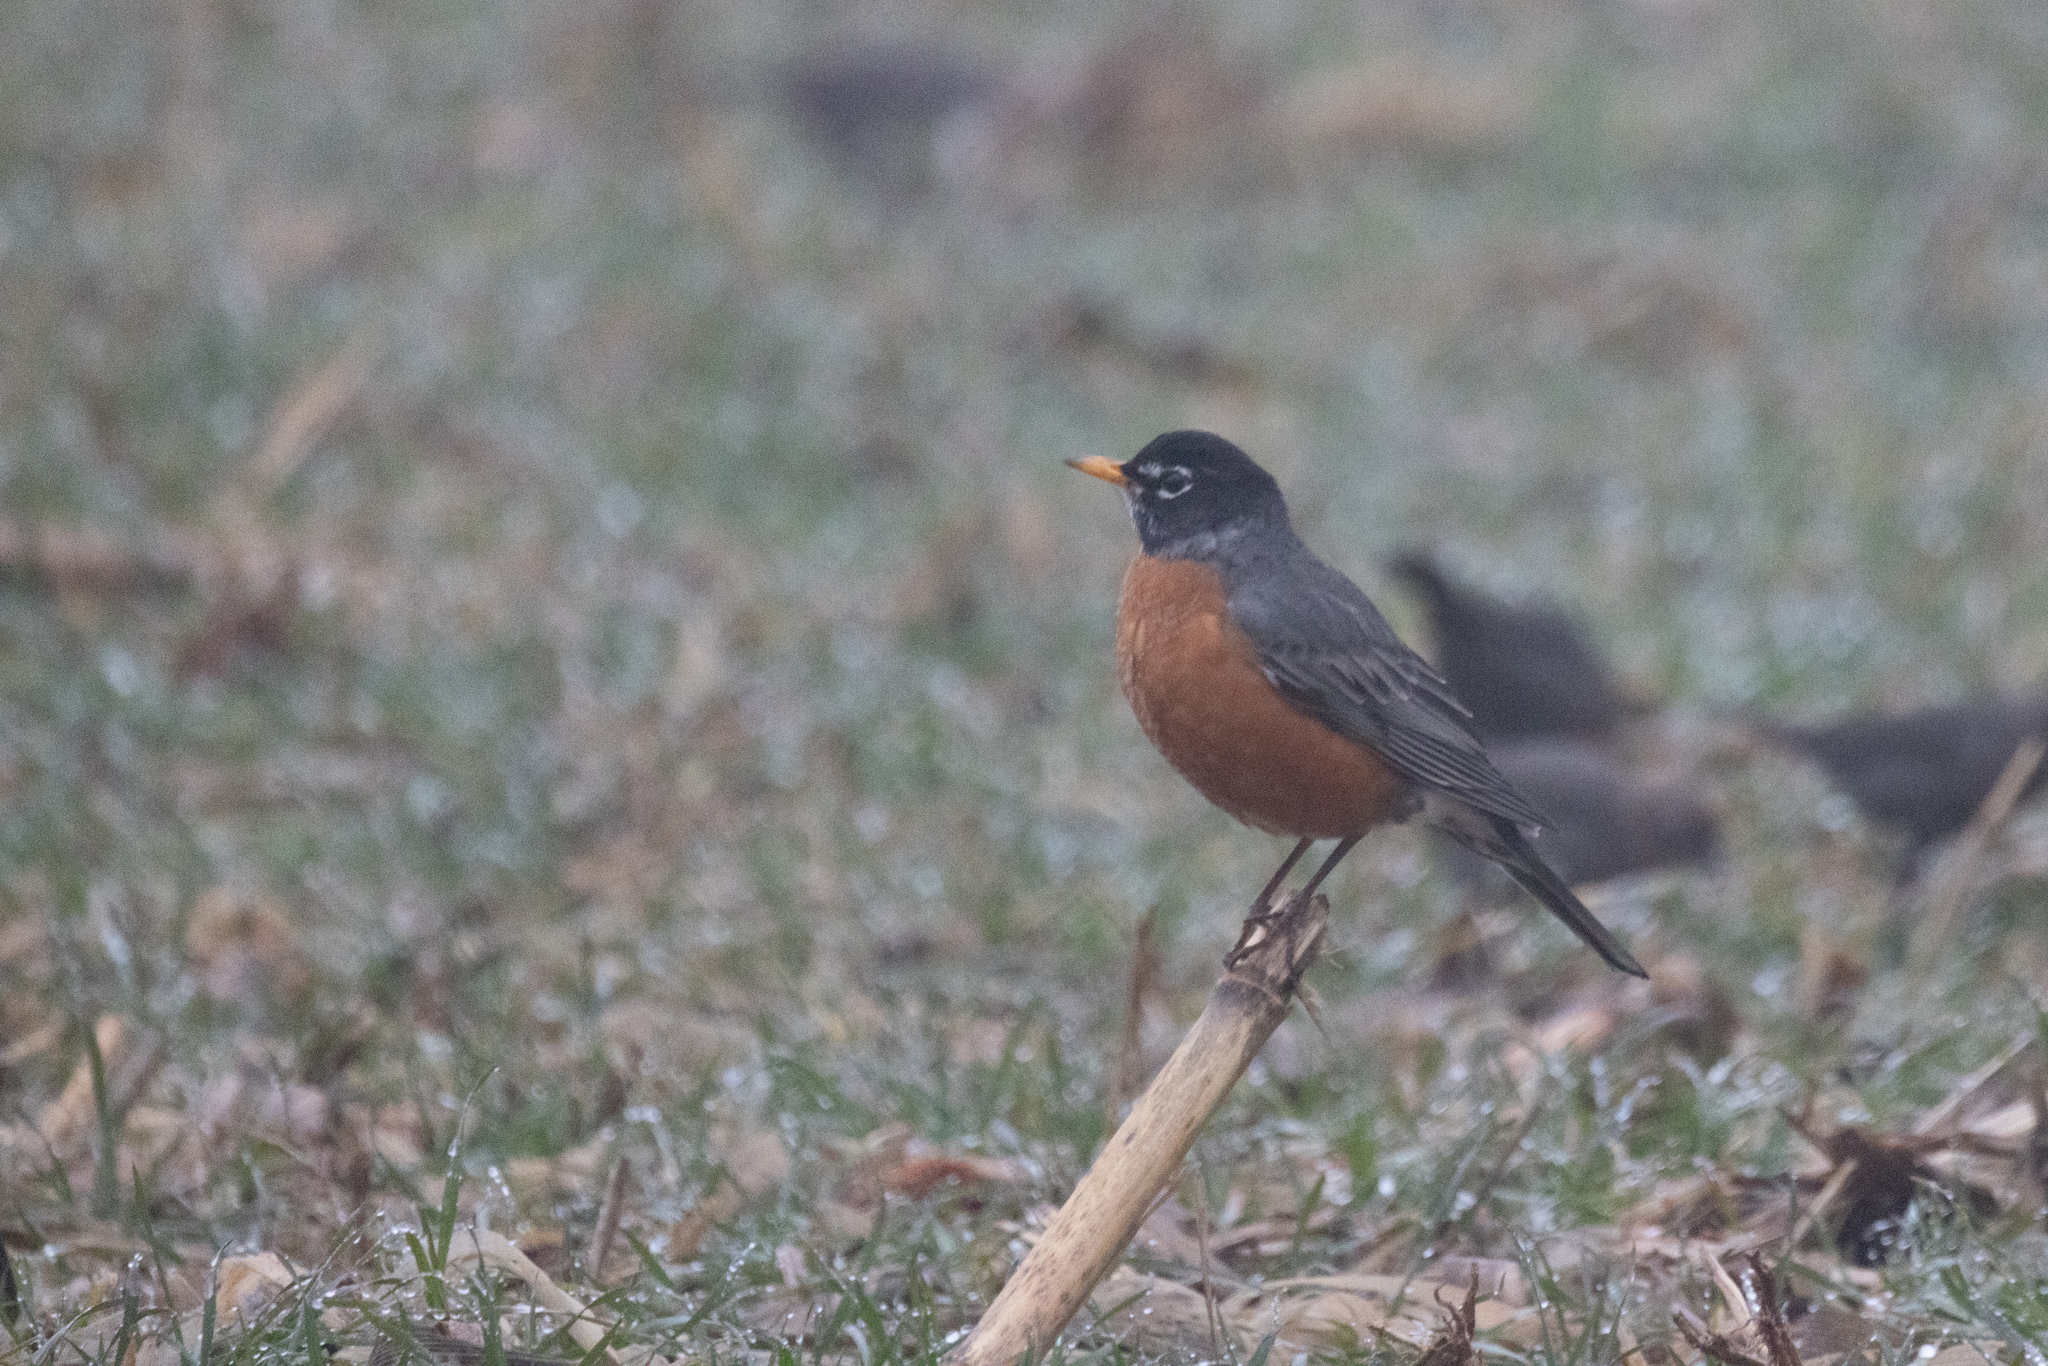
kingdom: Animalia
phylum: Chordata
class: Aves
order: Passeriformes
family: Turdidae
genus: Turdus
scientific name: Turdus migratorius
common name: American robin
